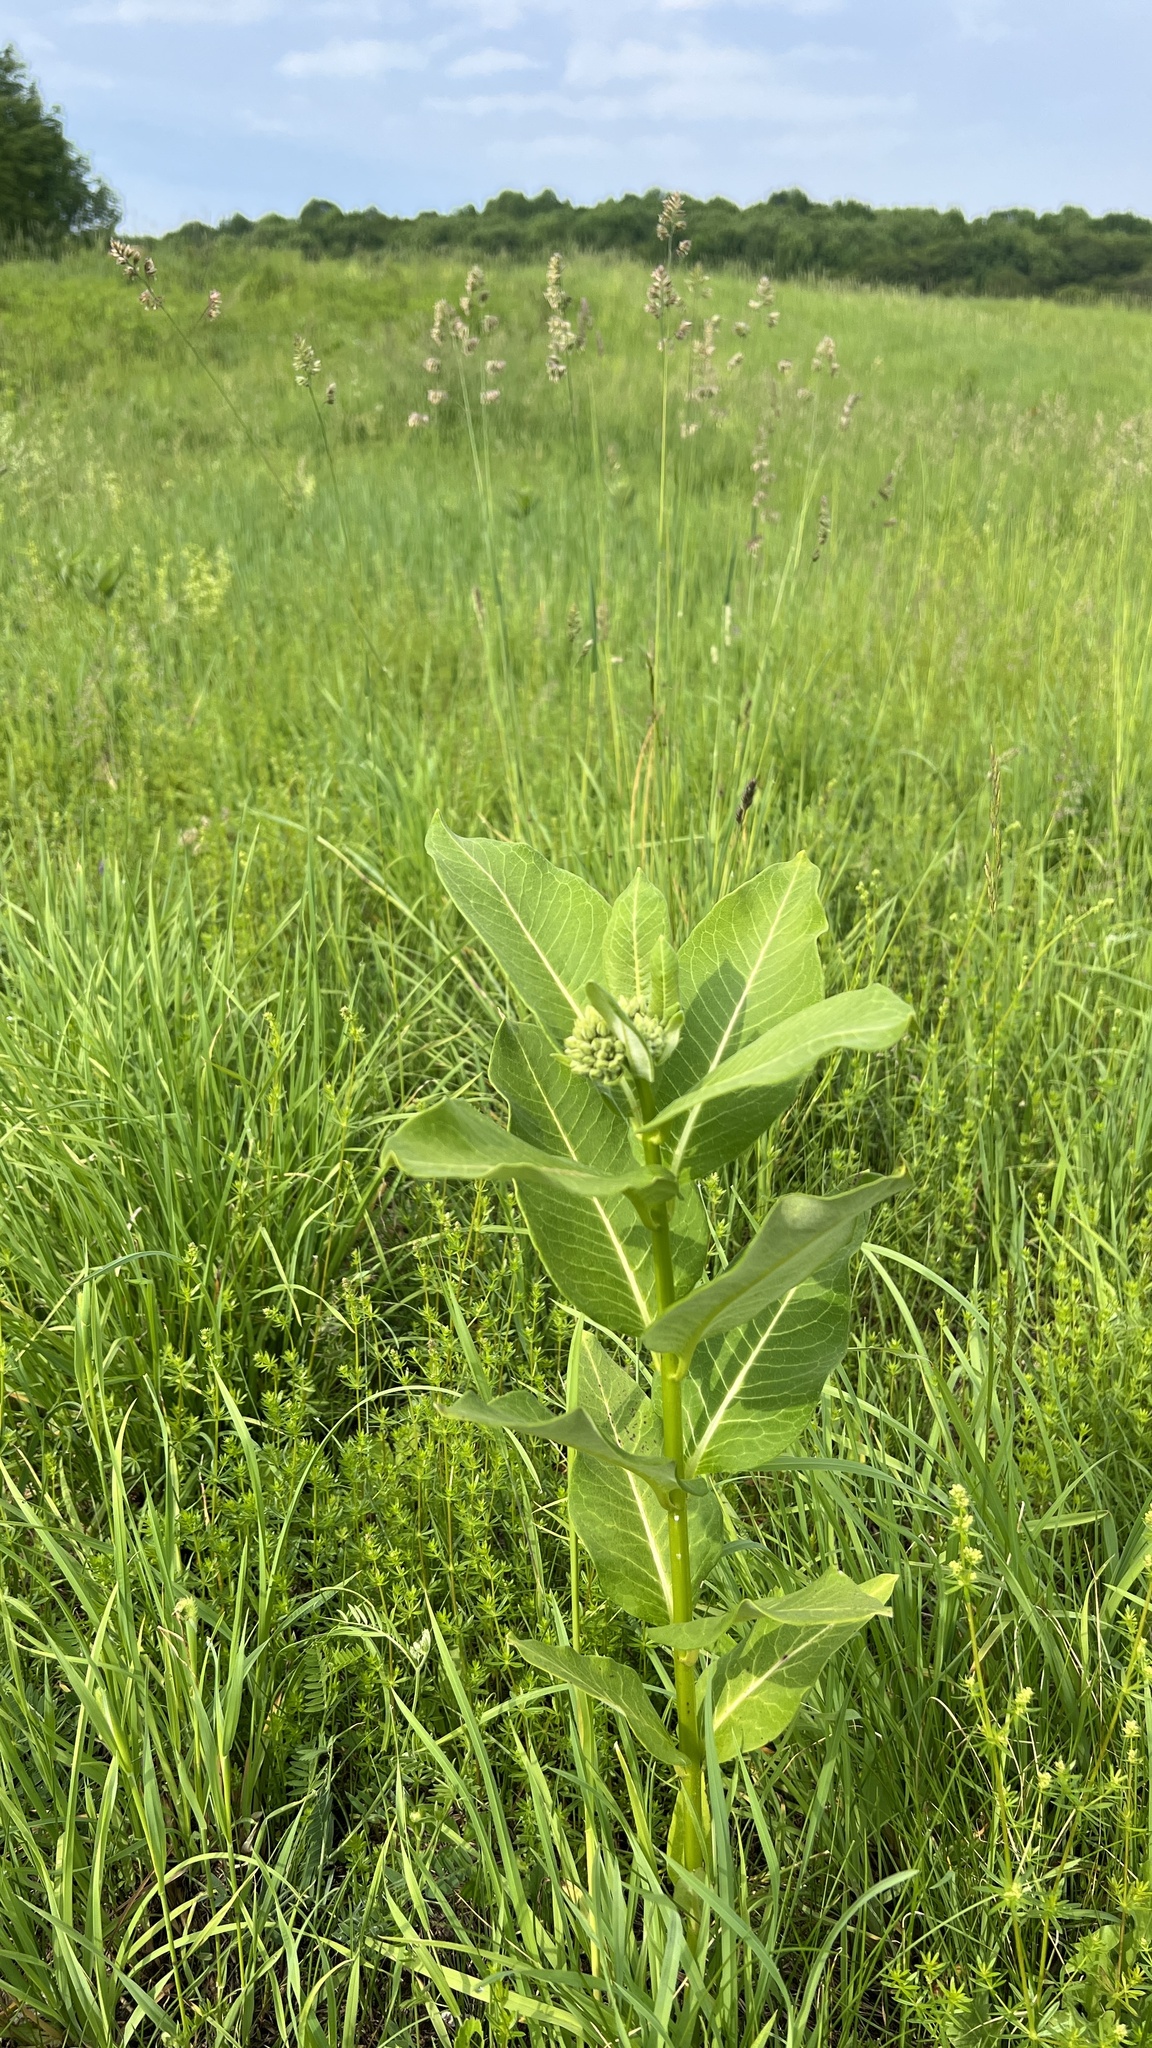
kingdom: Plantae
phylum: Tracheophyta
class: Magnoliopsida
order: Gentianales
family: Apocynaceae
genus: Asclepias
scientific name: Asclepias syriaca
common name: Common milkweed
